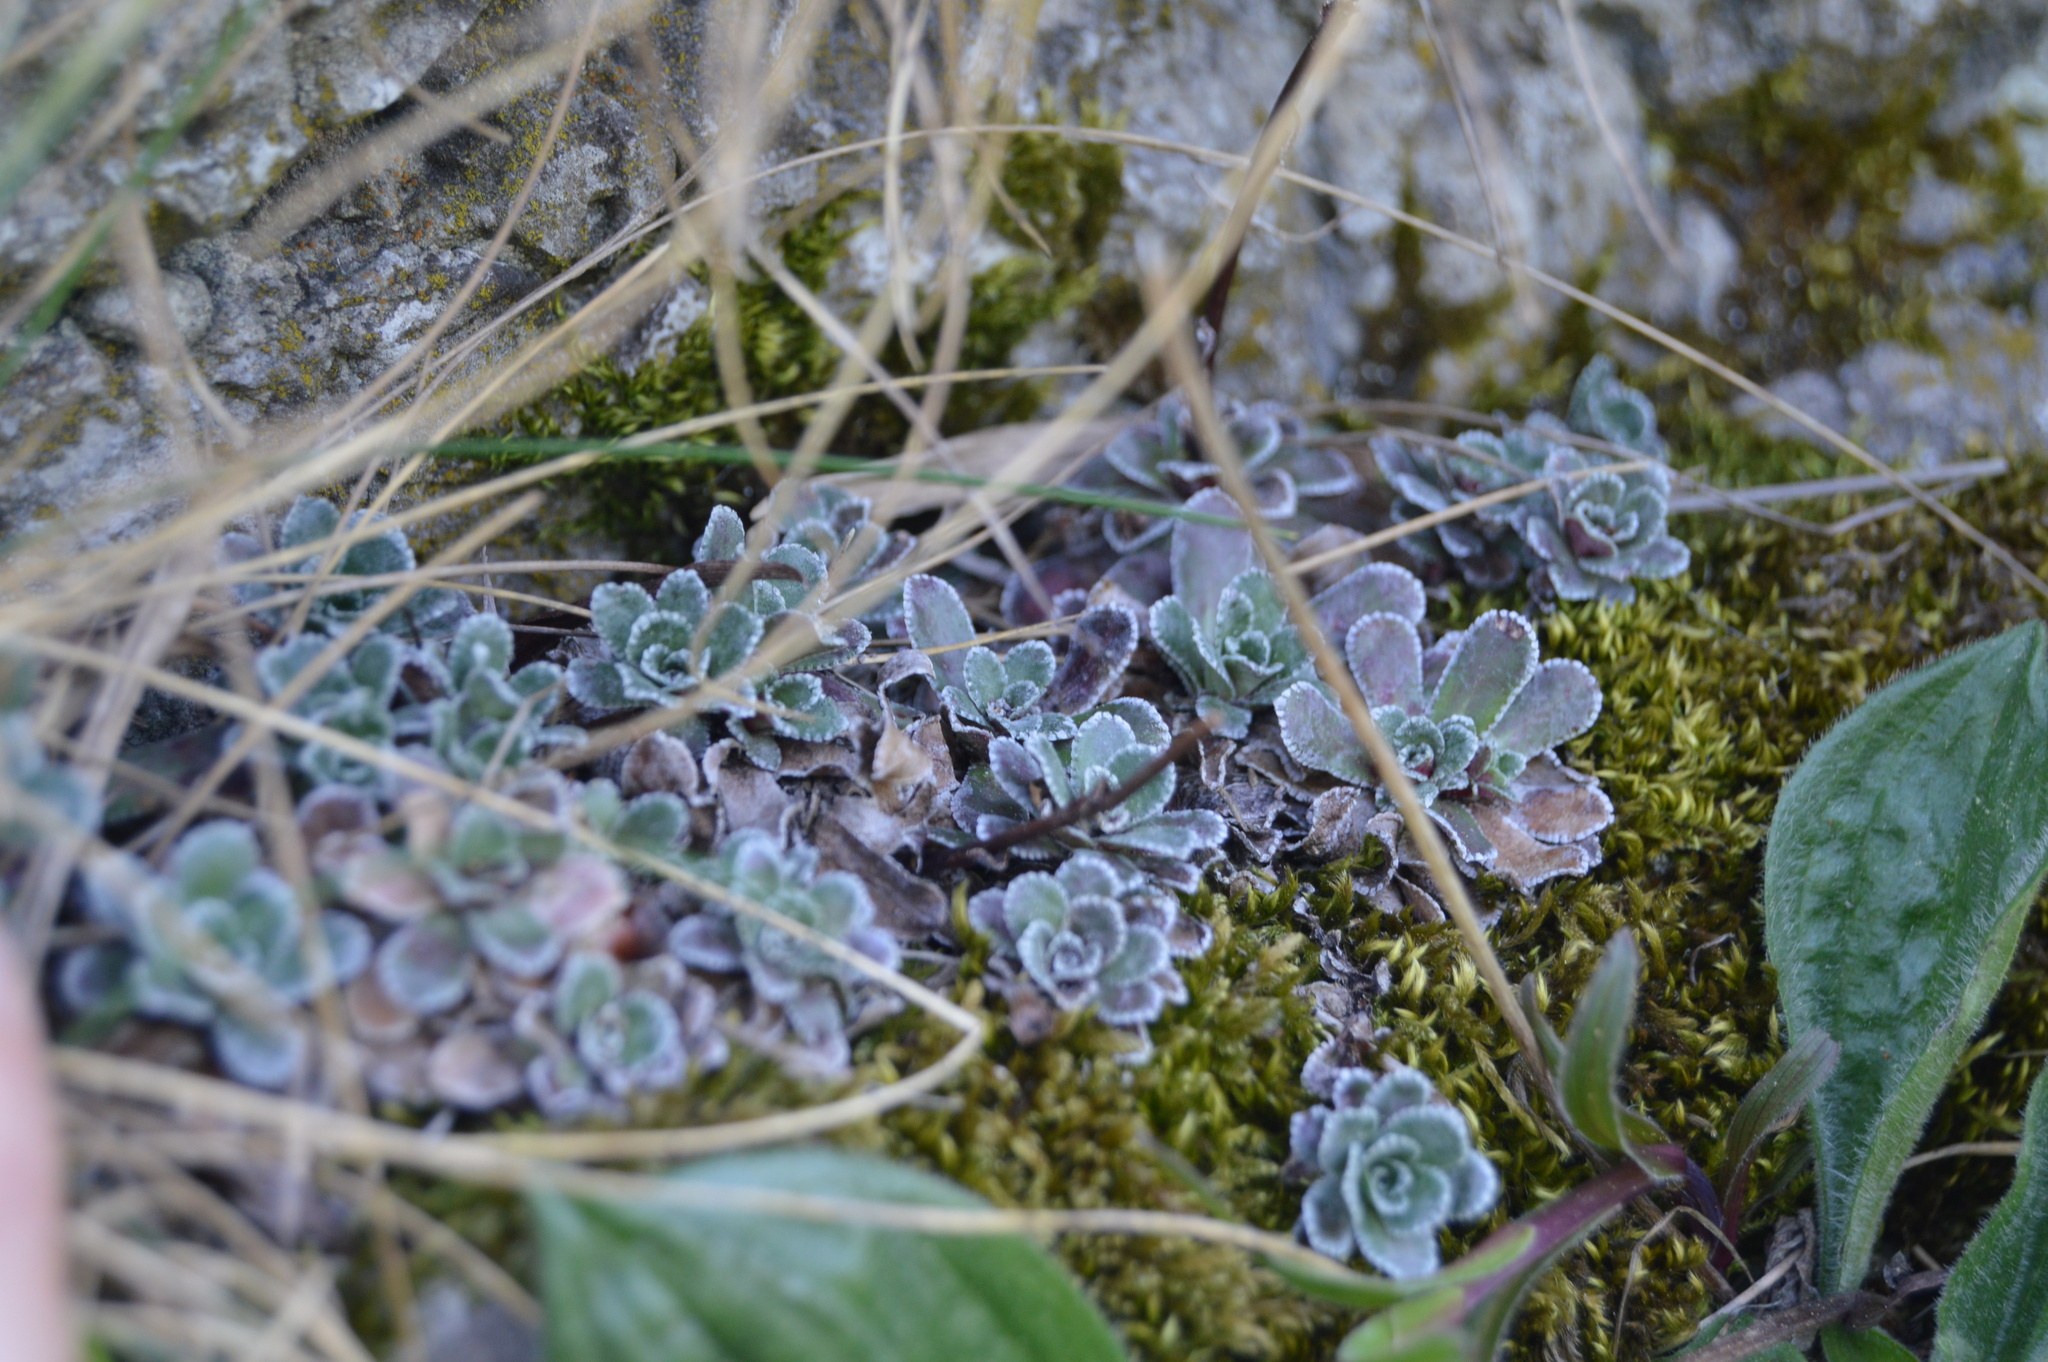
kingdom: Plantae
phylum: Tracheophyta
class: Magnoliopsida
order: Saxifragales
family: Saxifragaceae
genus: Saxifraga
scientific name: Saxifraga paniculata
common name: Livelong saxifrage
